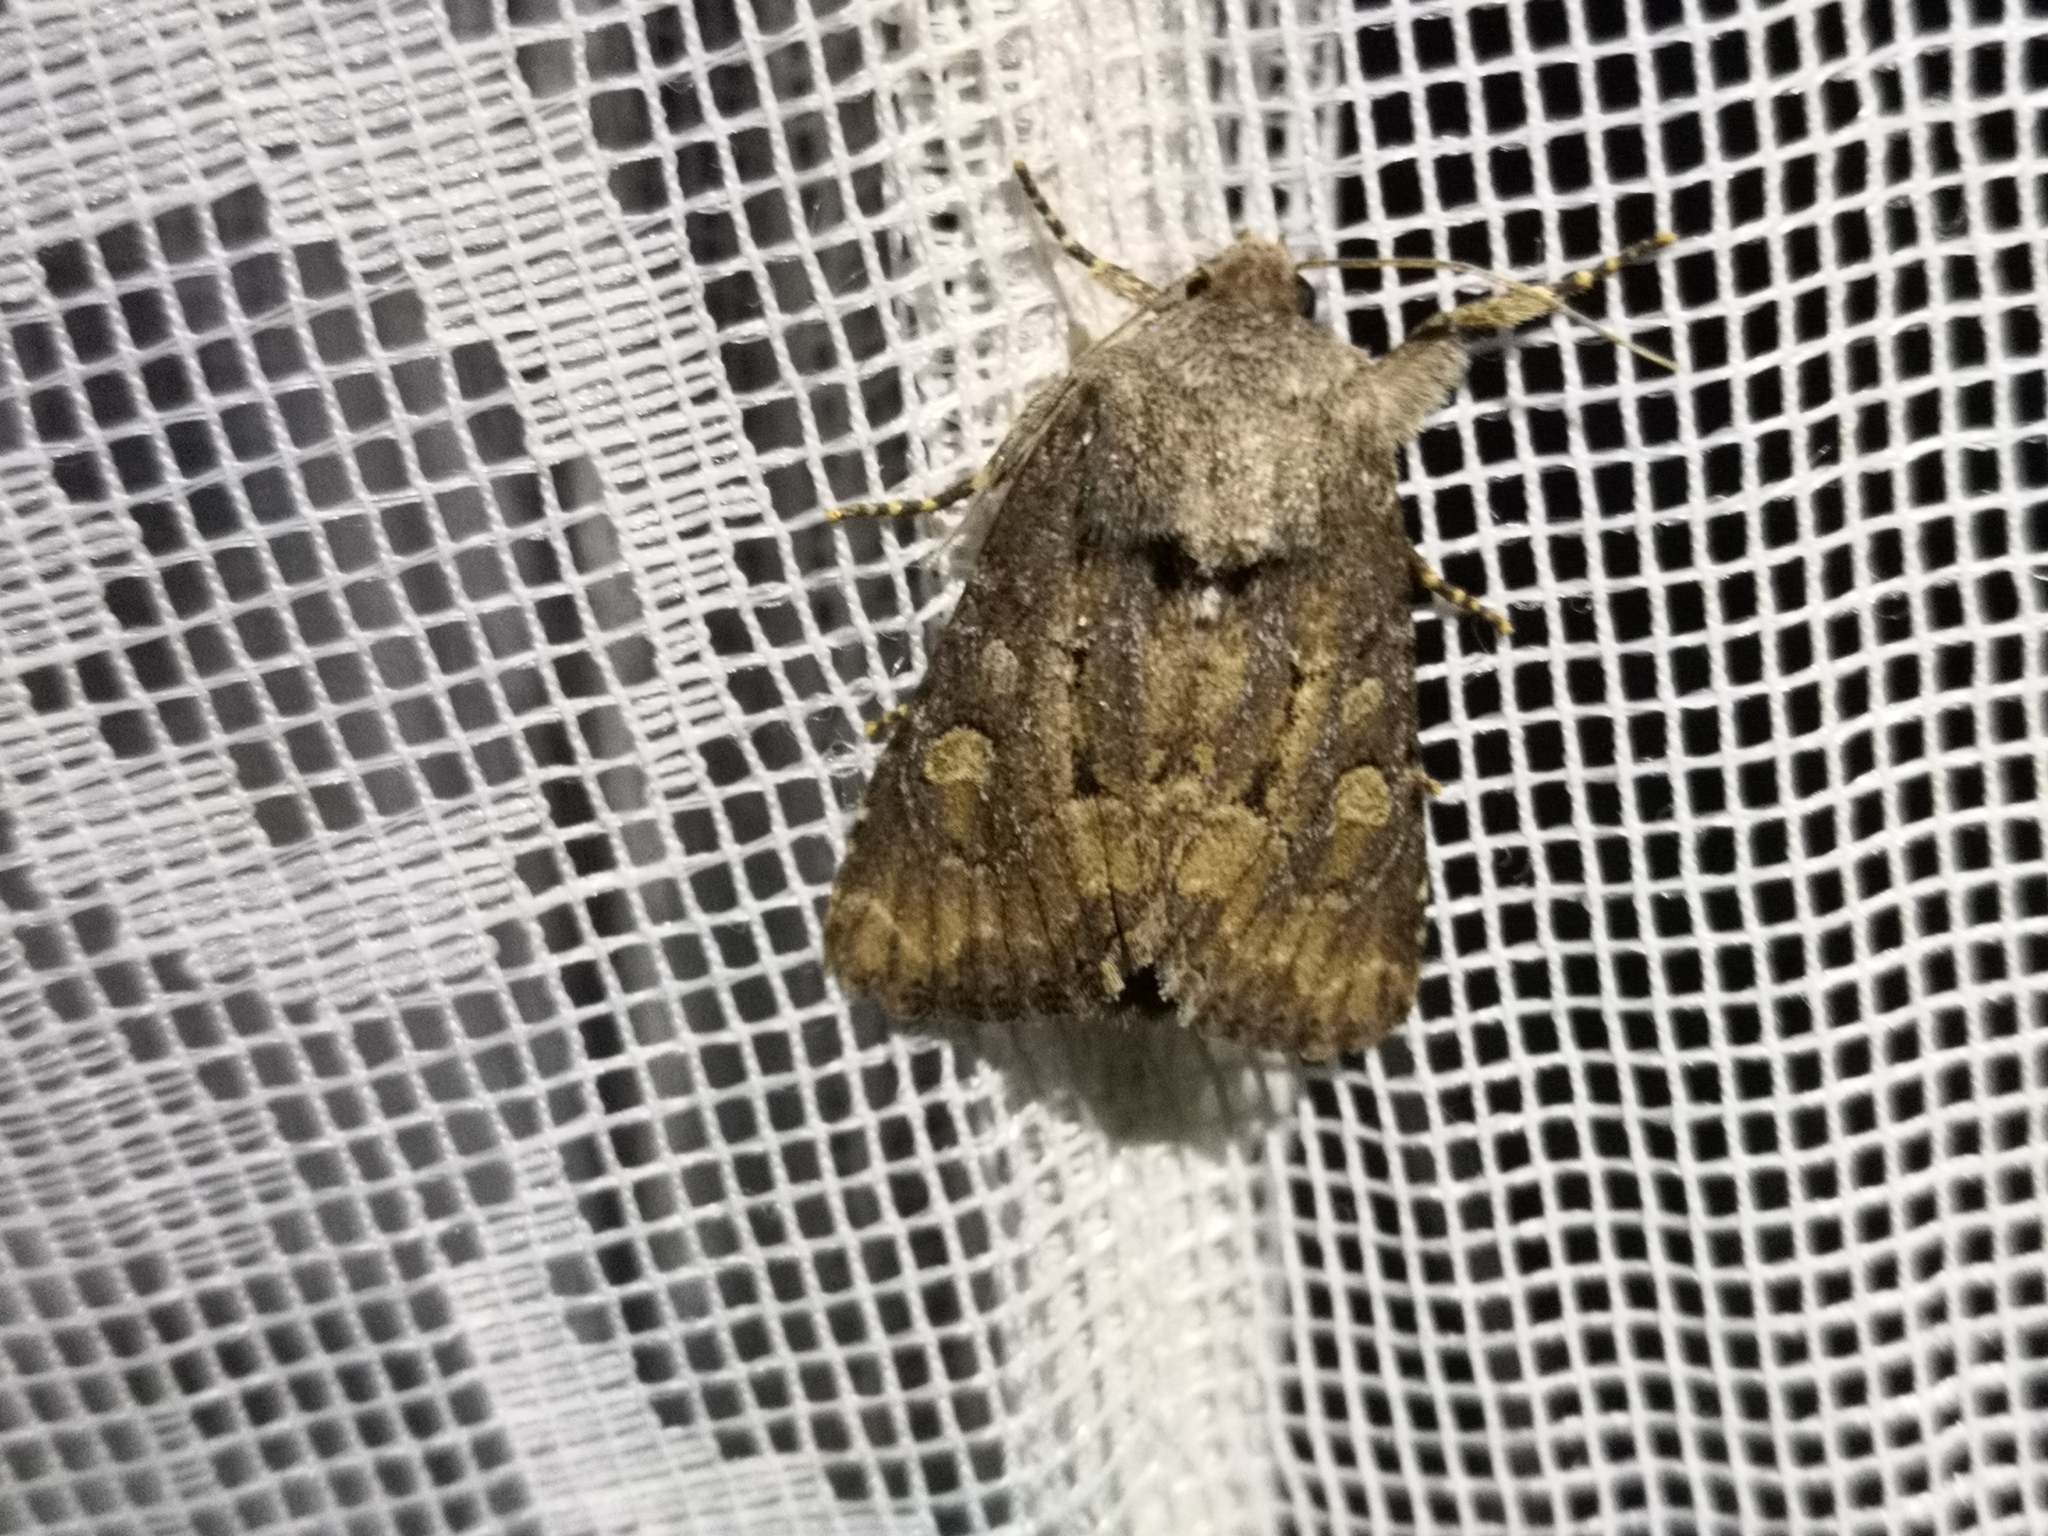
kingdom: Animalia
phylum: Arthropoda
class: Insecta
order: Lepidoptera
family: Noctuidae
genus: Luperina
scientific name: Luperina testacea
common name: Flounced rustic
